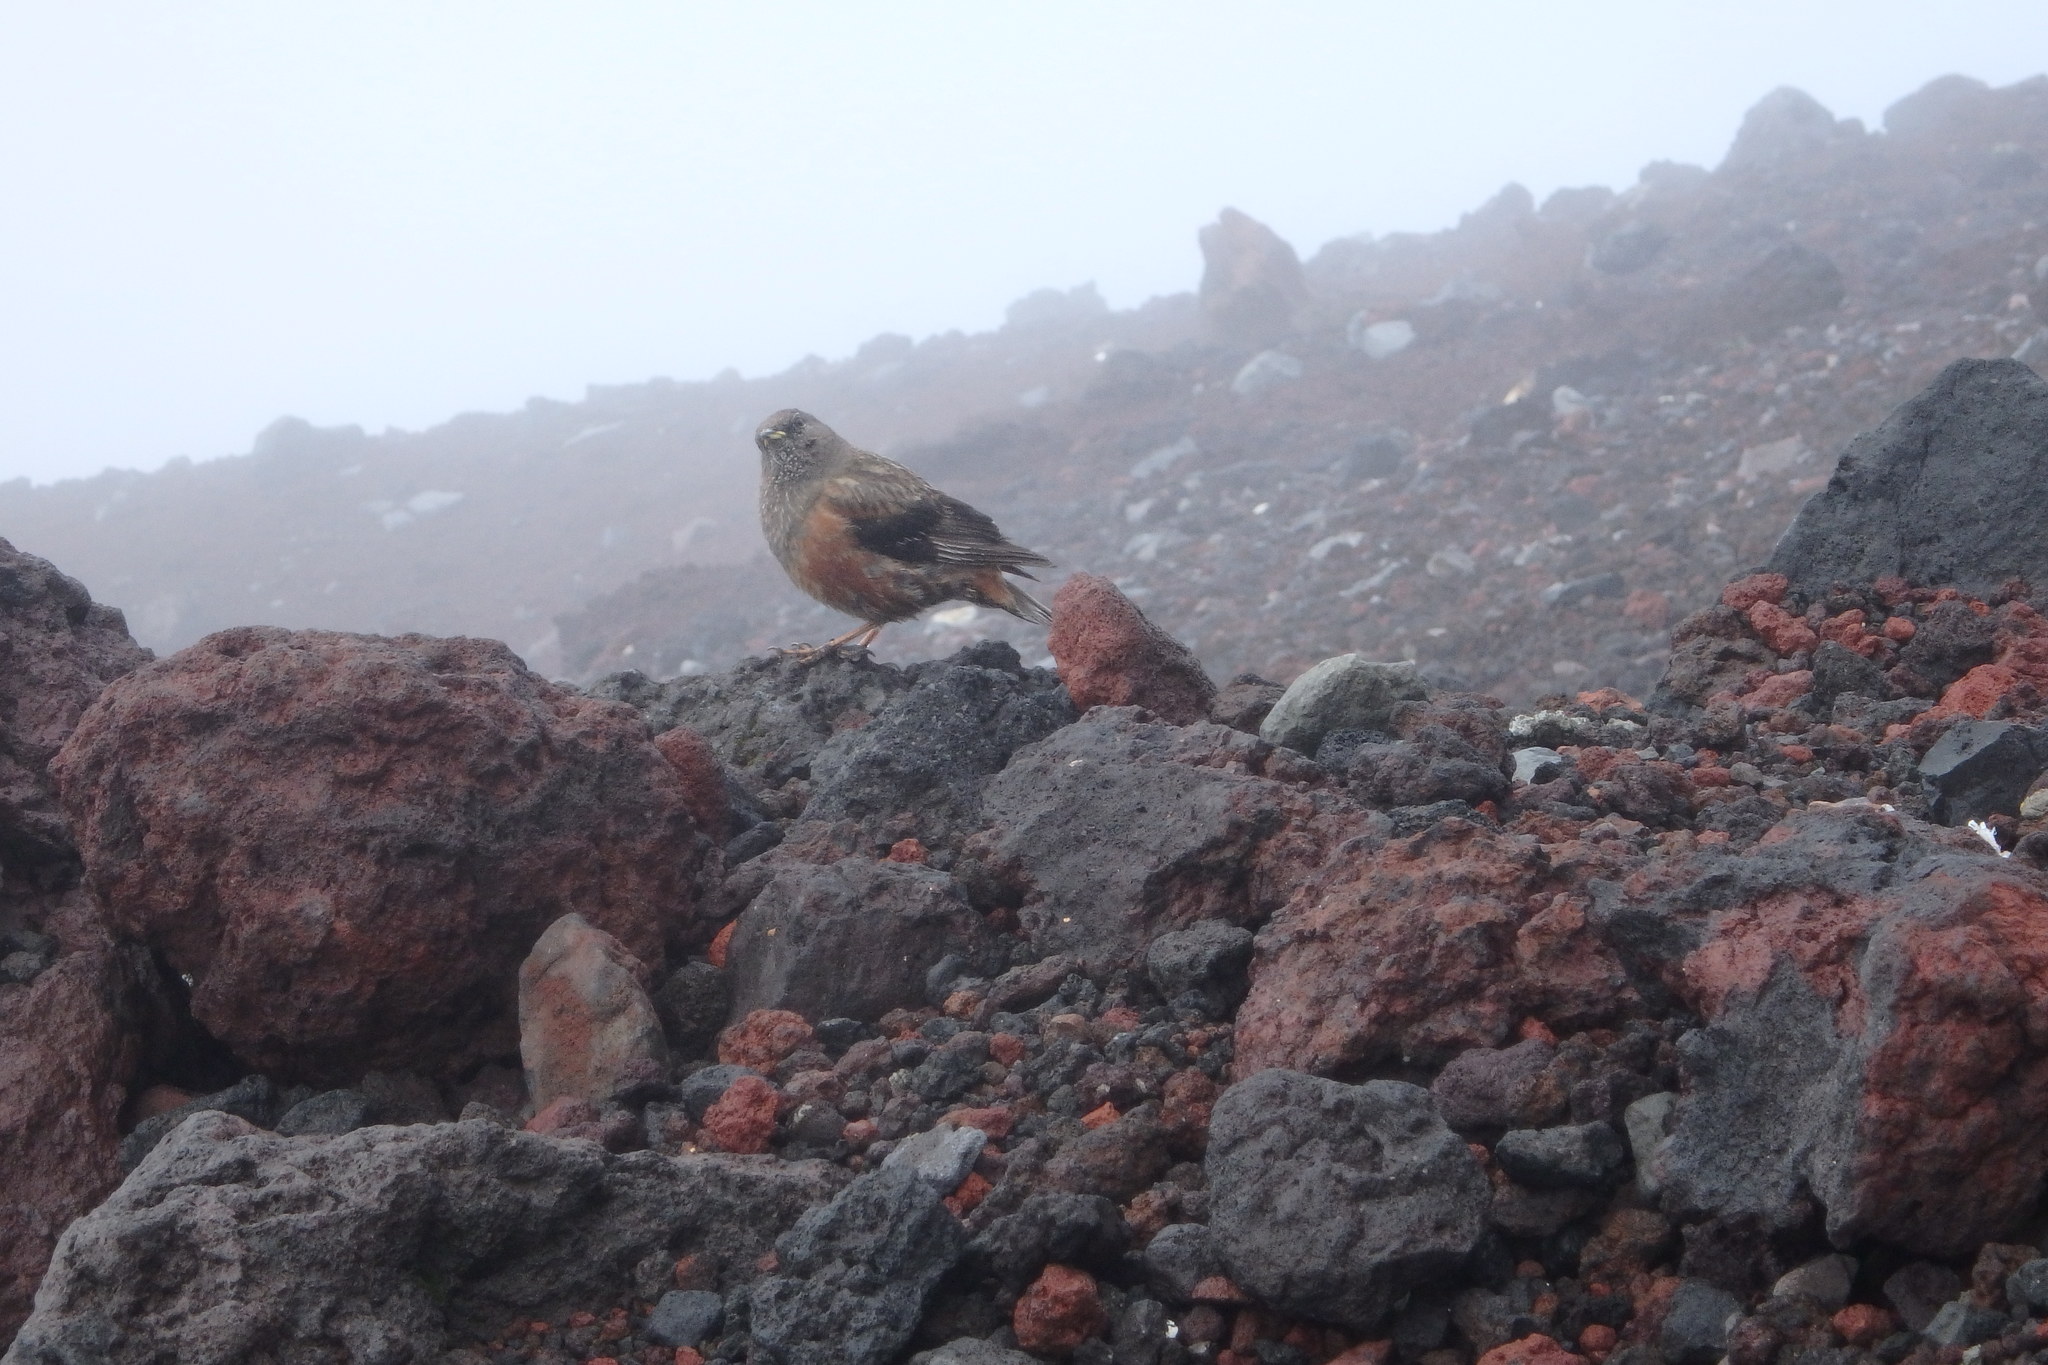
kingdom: Animalia
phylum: Chordata
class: Aves
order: Passeriformes
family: Prunellidae
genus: Prunella
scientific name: Prunella collaris
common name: Alpine accentor
